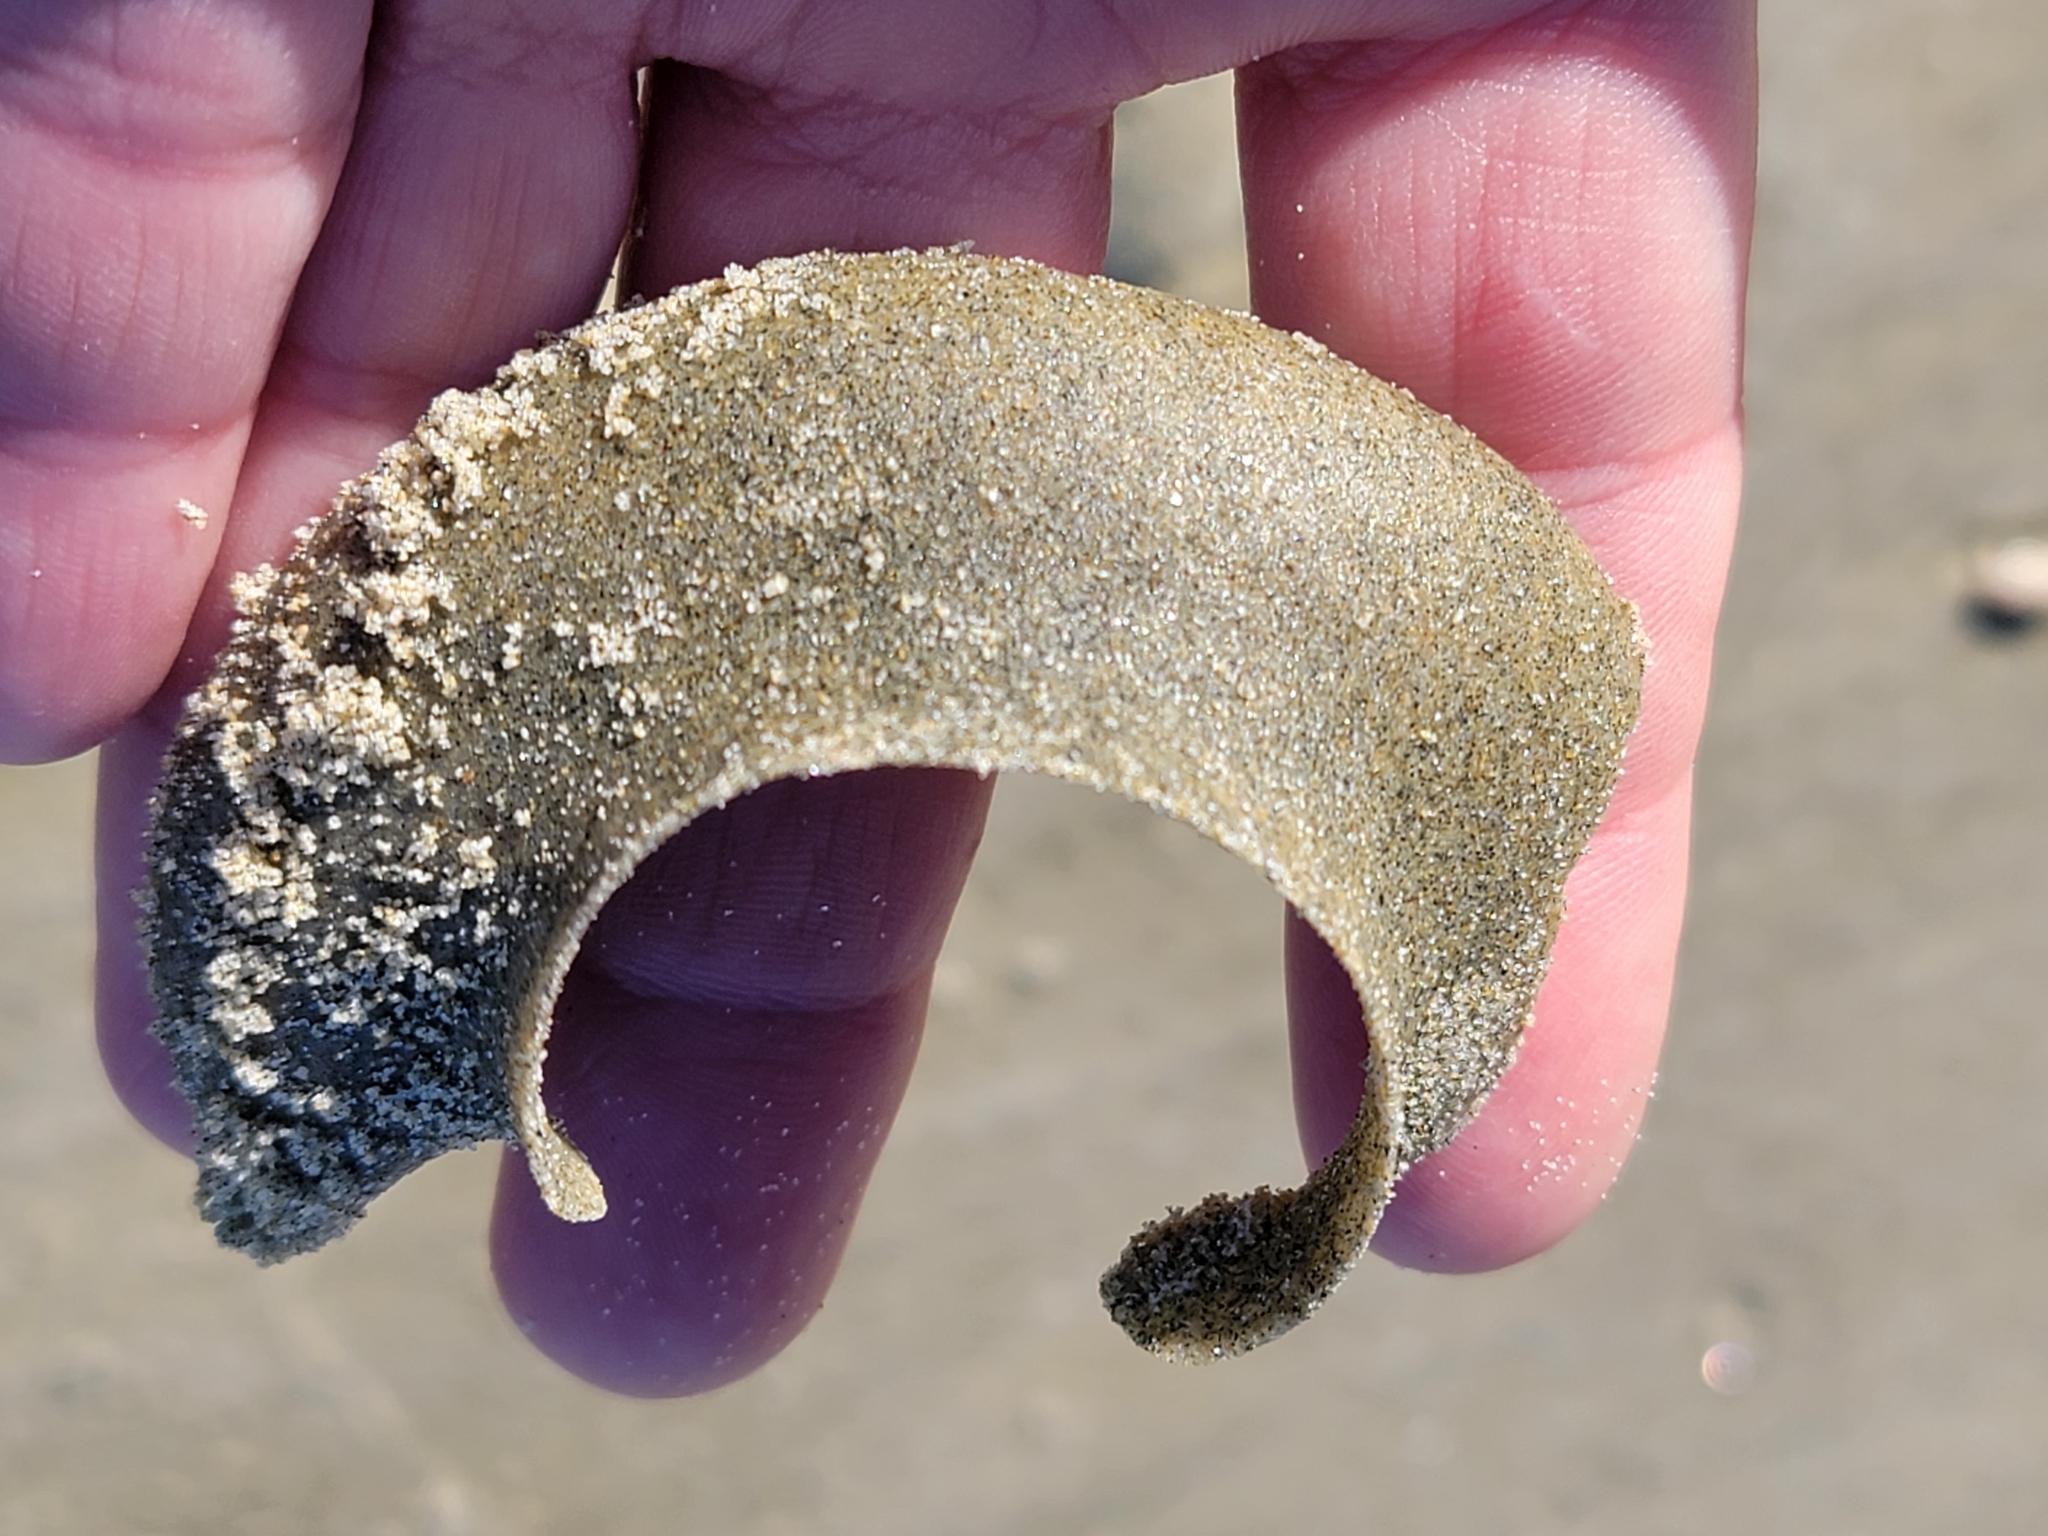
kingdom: Animalia
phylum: Mollusca
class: Gastropoda
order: Littorinimorpha
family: Naticidae
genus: Tanea
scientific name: Tanea zelandica
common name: New zealand moonsnail
